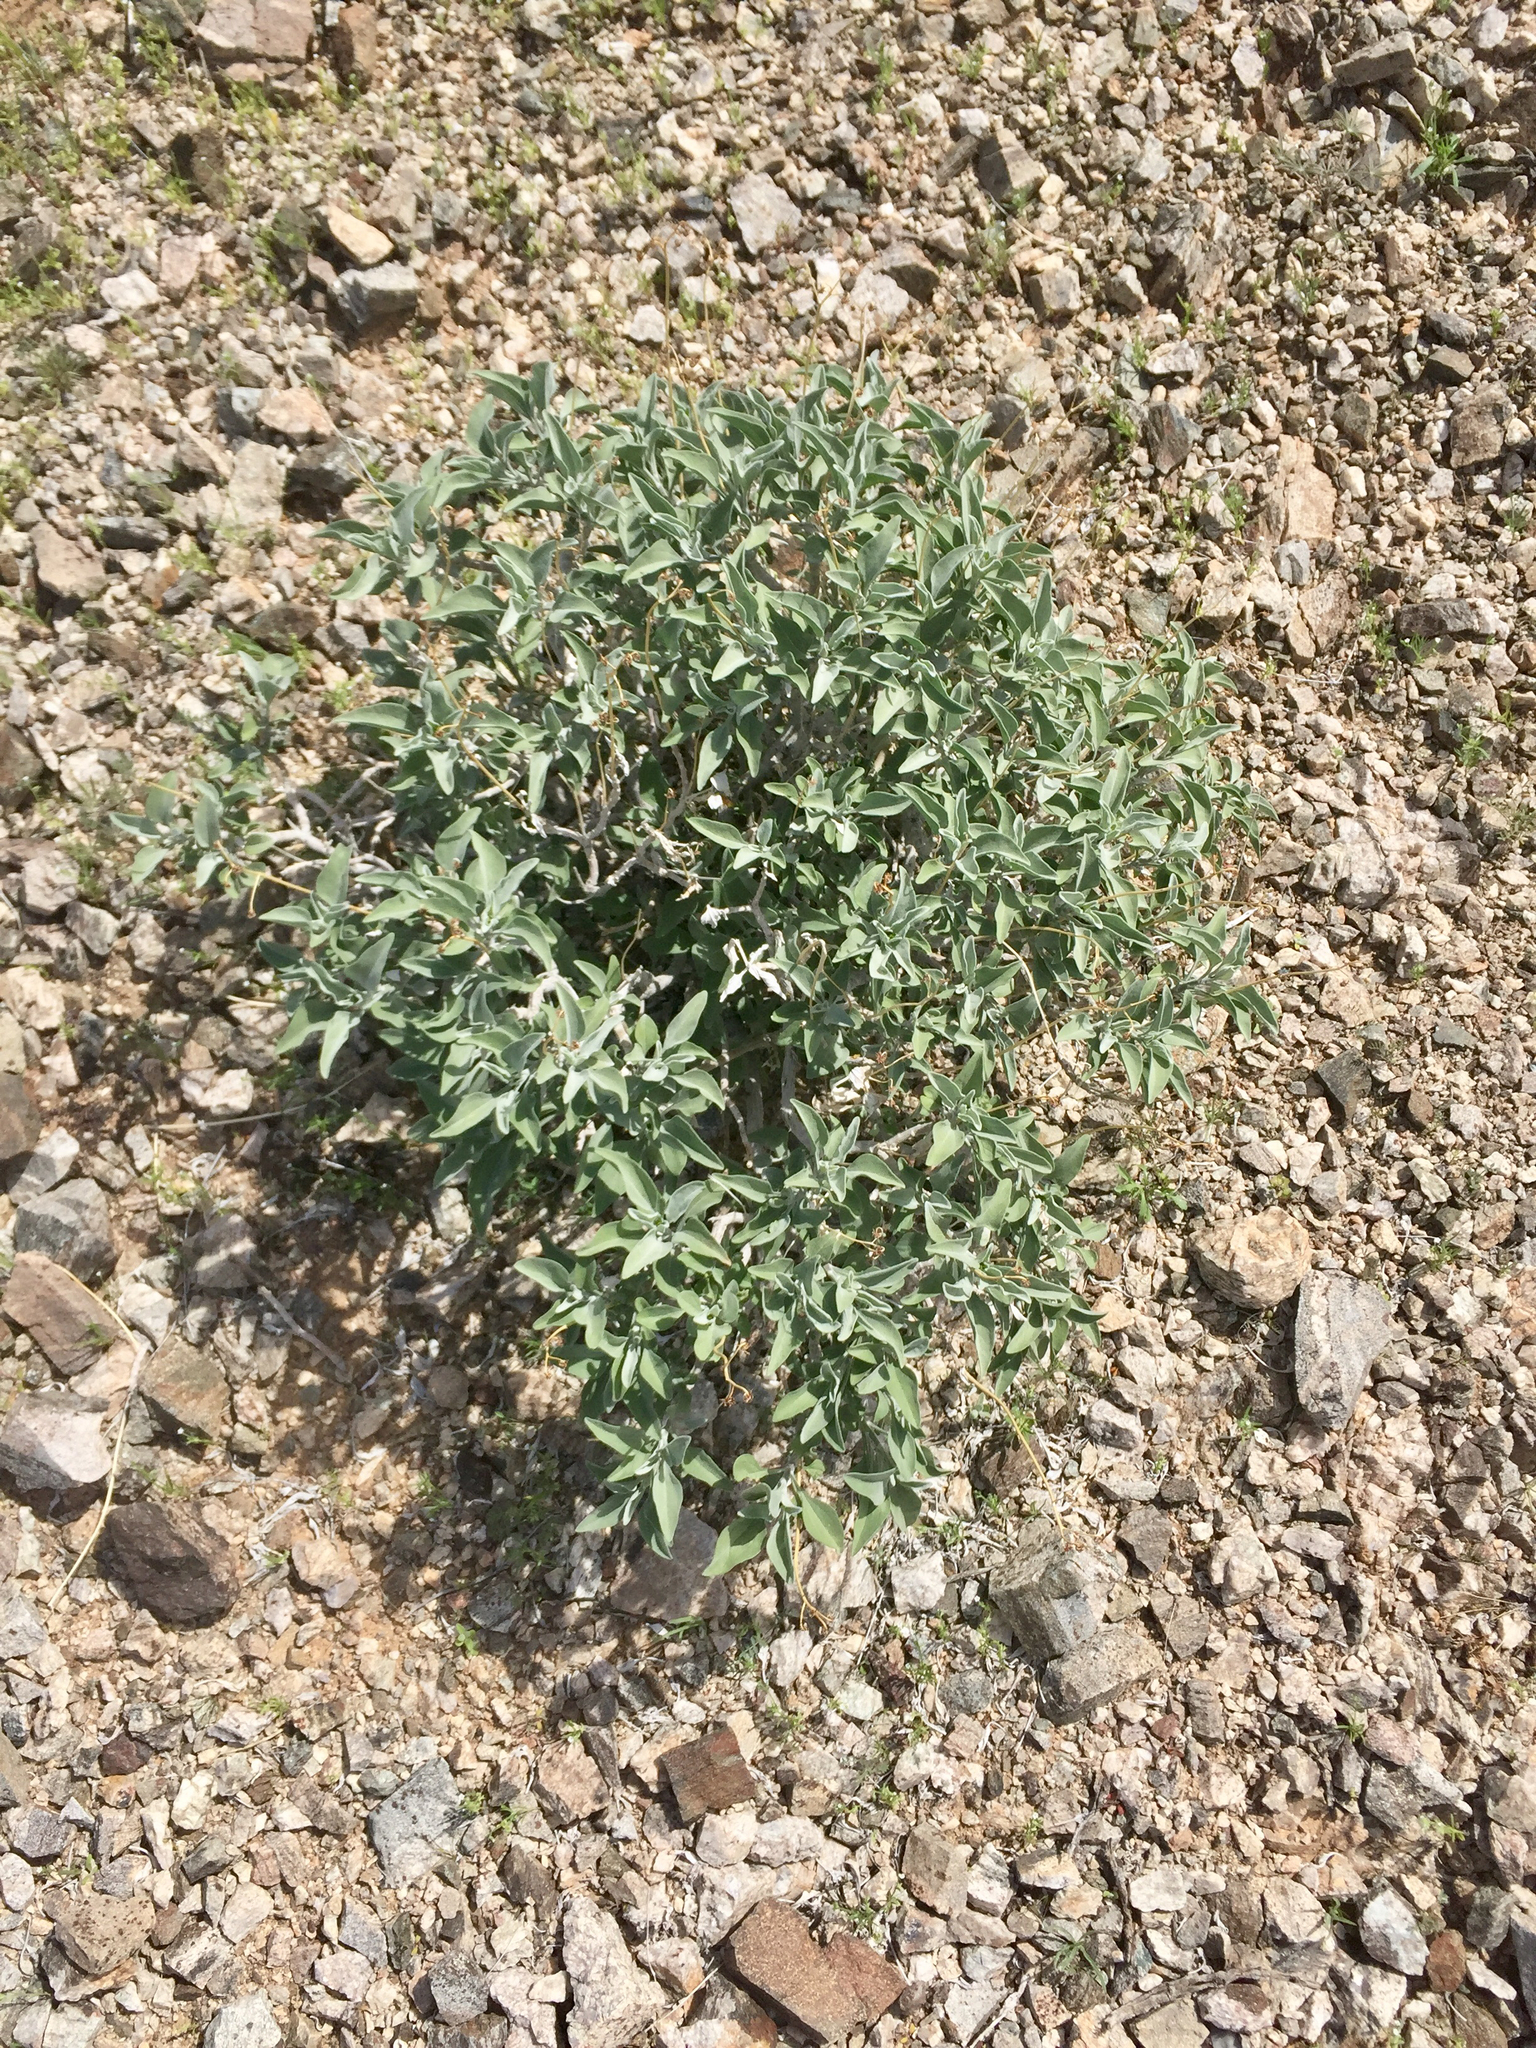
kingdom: Plantae
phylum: Tracheophyta
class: Magnoliopsida
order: Asterales
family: Asteraceae
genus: Encelia
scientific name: Encelia farinosa
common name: Brittlebush
